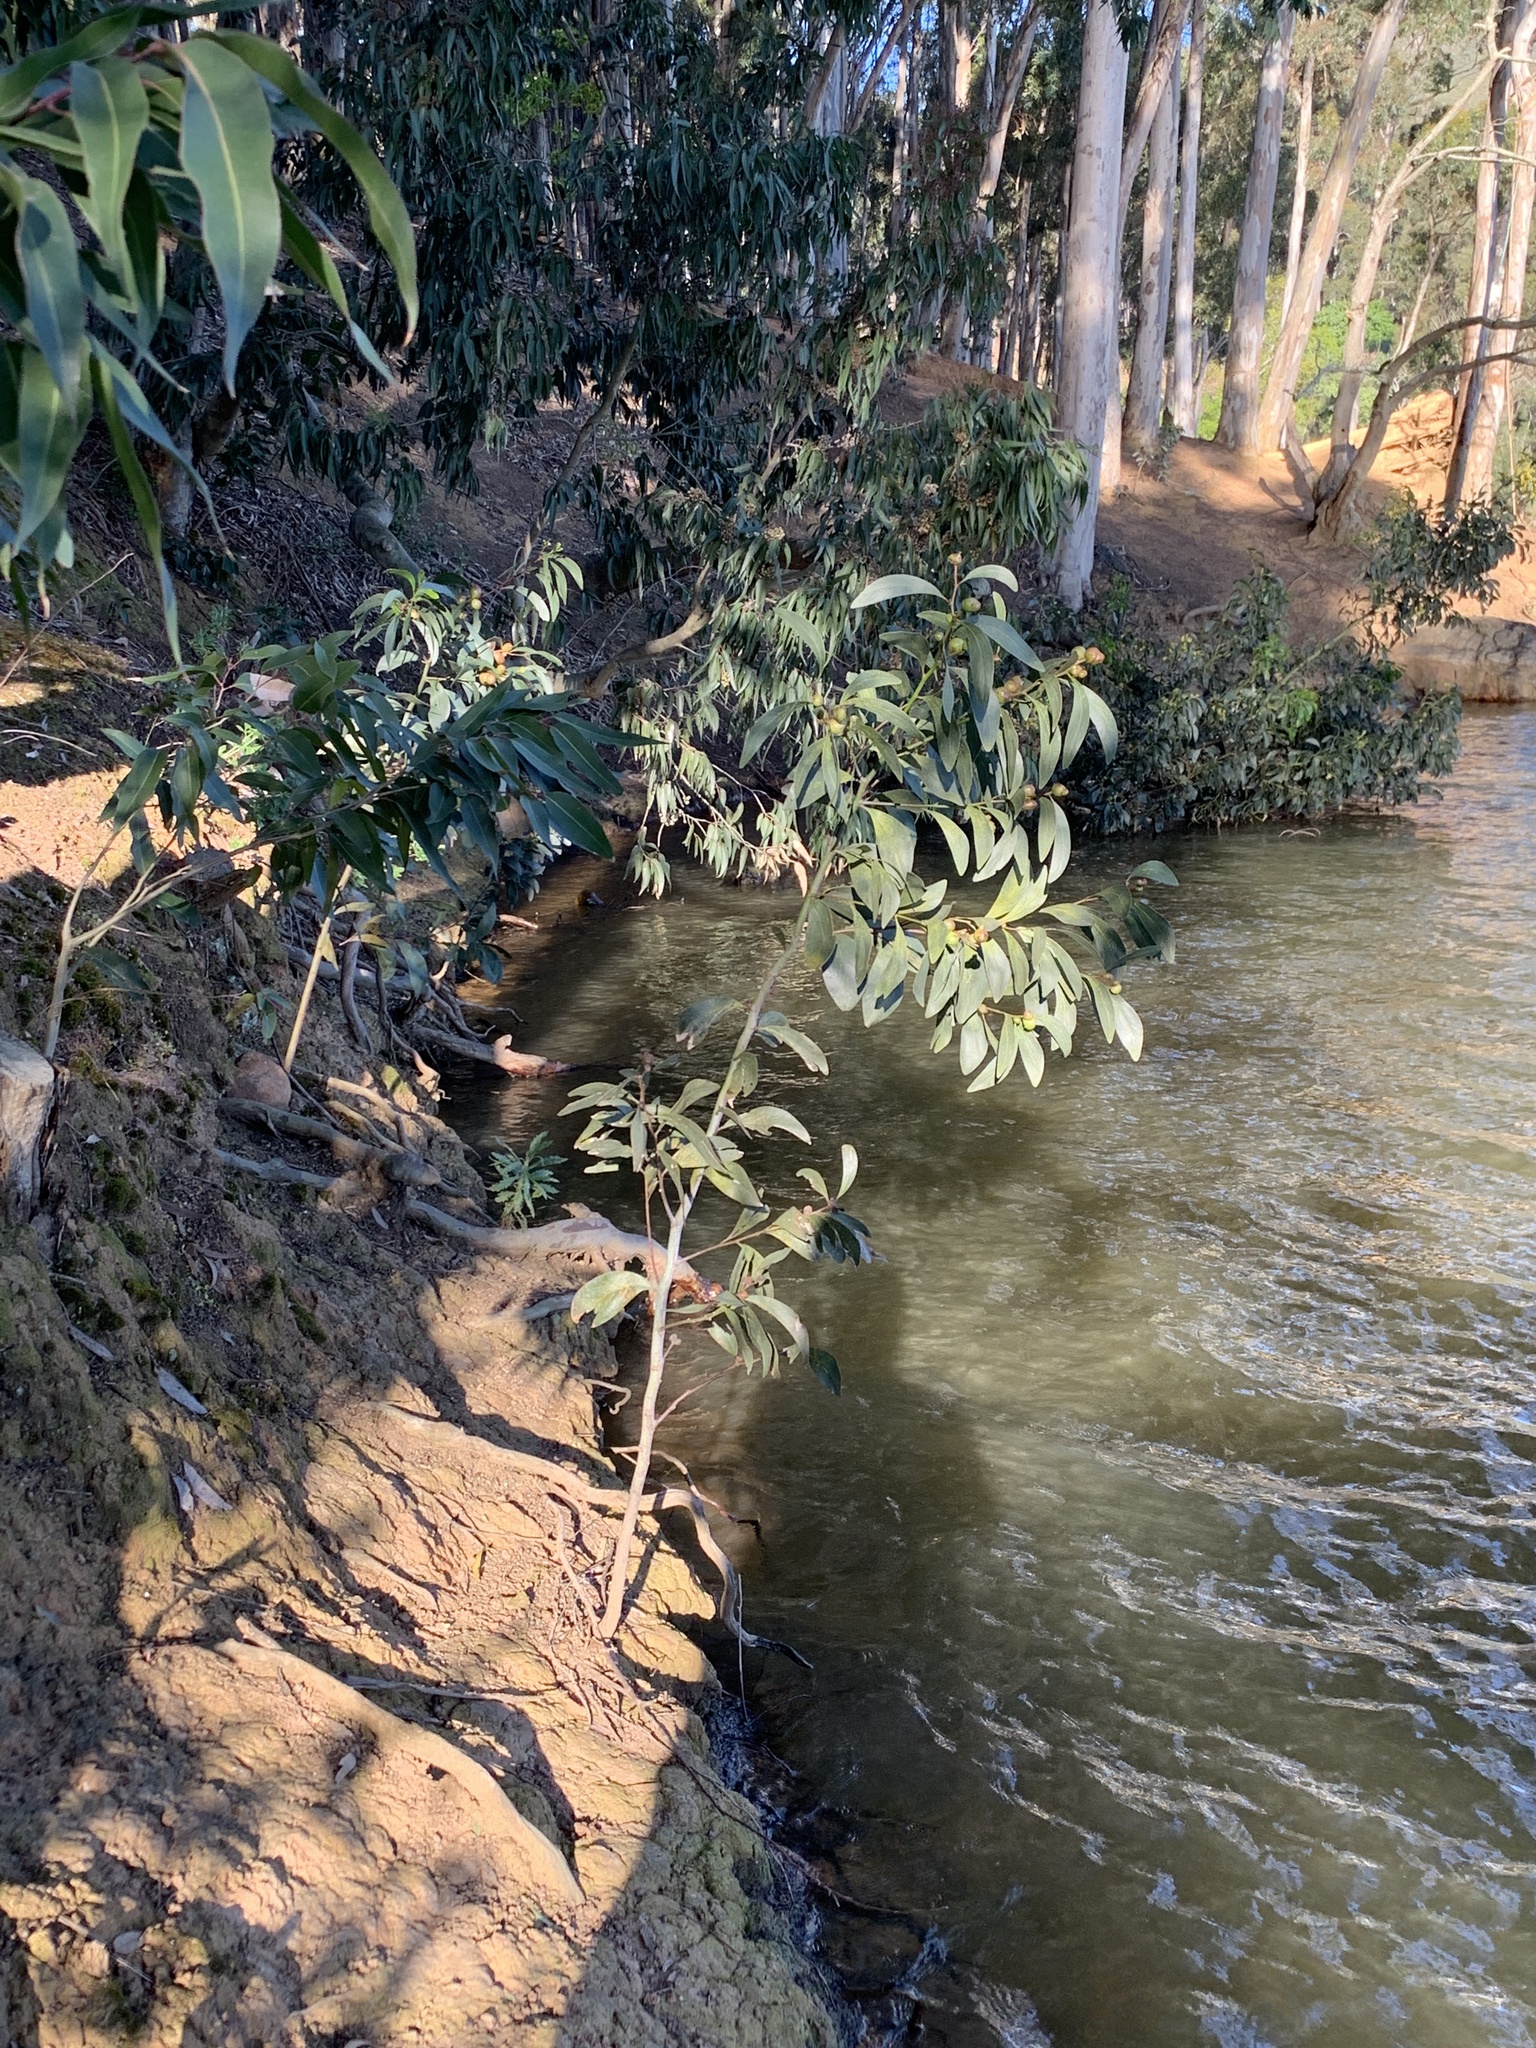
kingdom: Plantae
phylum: Tracheophyta
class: Magnoliopsida
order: Fabales
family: Fabaceae
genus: Acacia
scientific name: Acacia pycnantha
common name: Golden wattle
